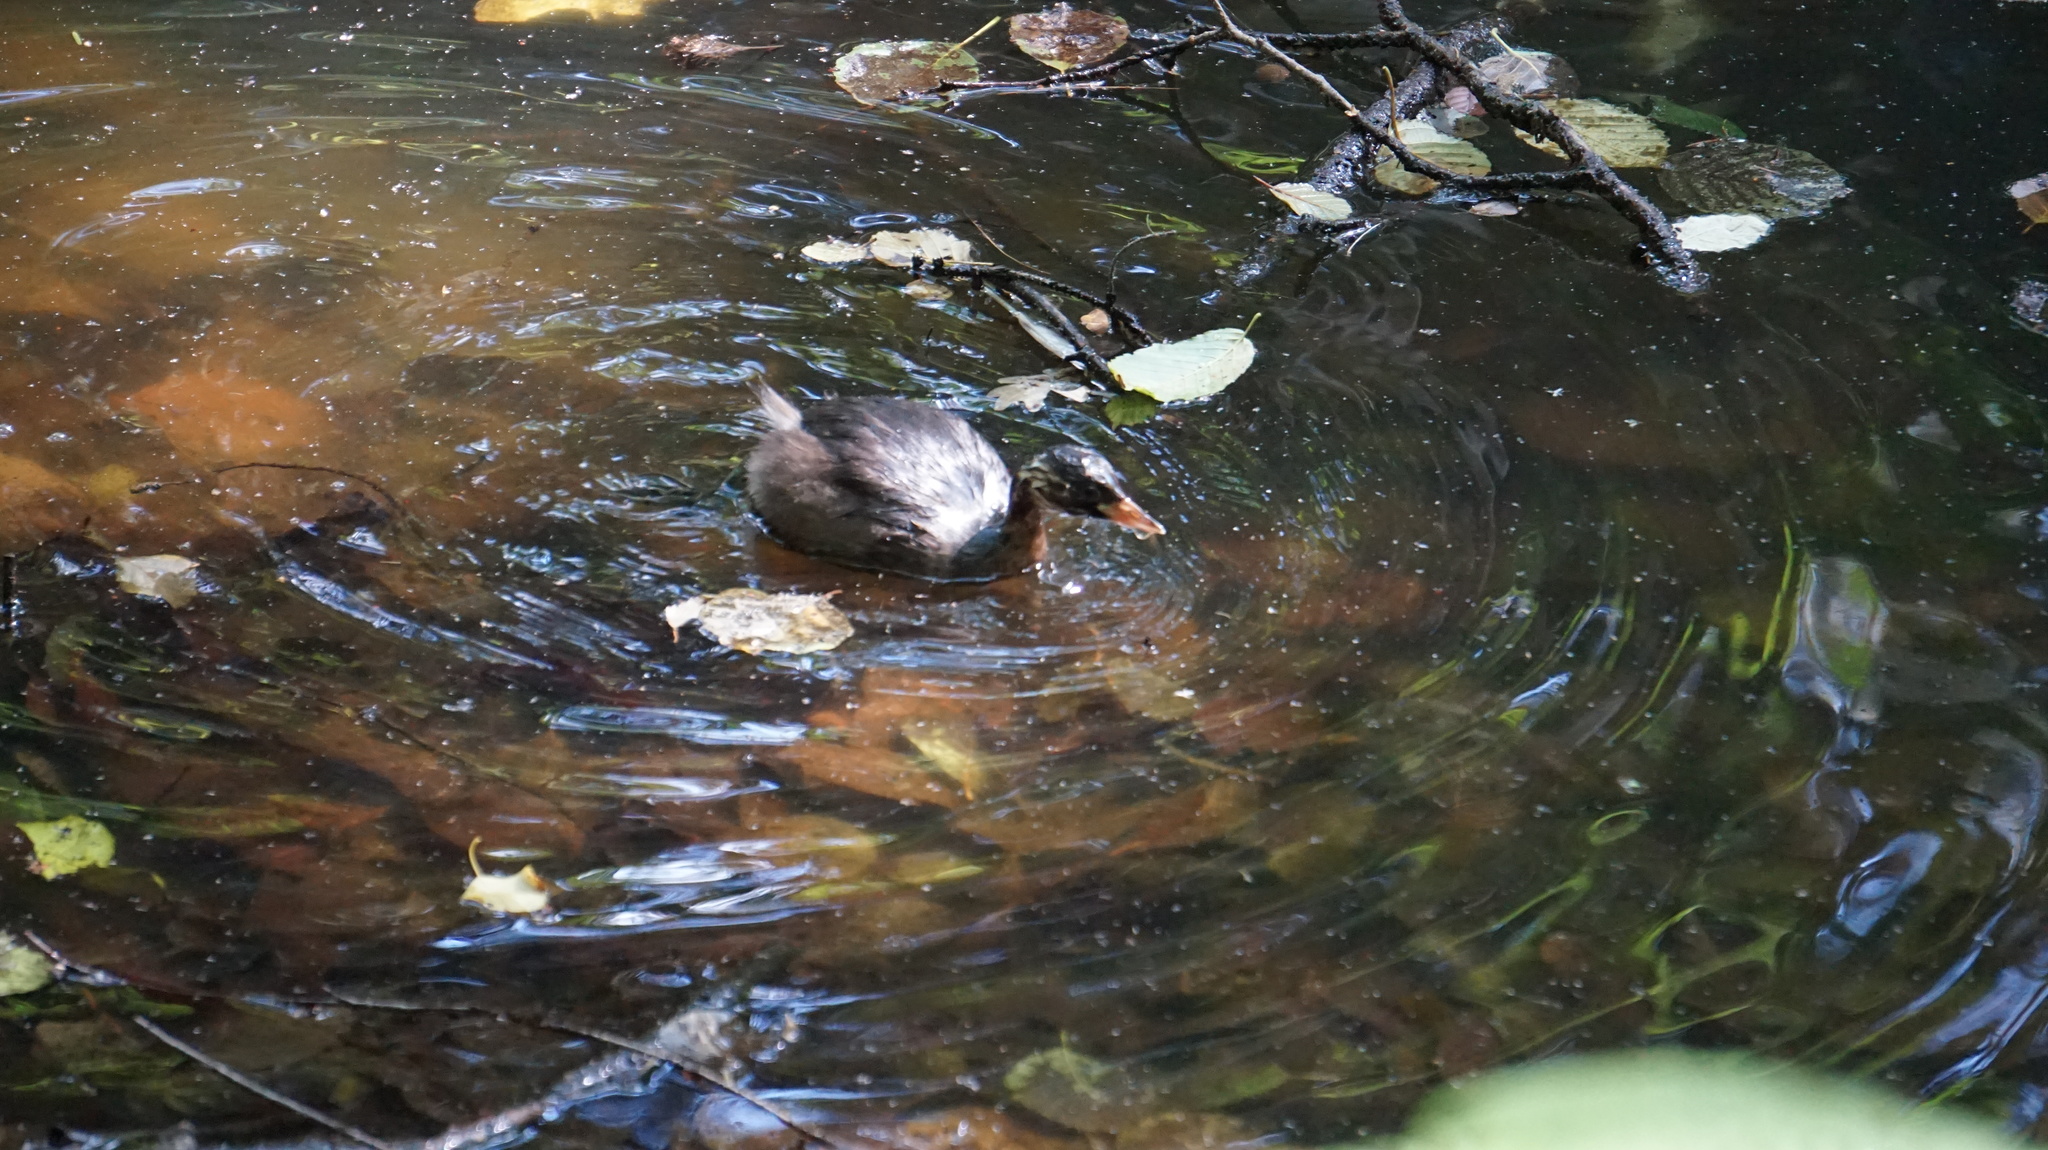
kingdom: Animalia
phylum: Chordata
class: Aves
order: Podicipediformes
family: Podicipedidae
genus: Tachybaptus
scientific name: Tachybaptus ruficollis
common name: Little grebe
